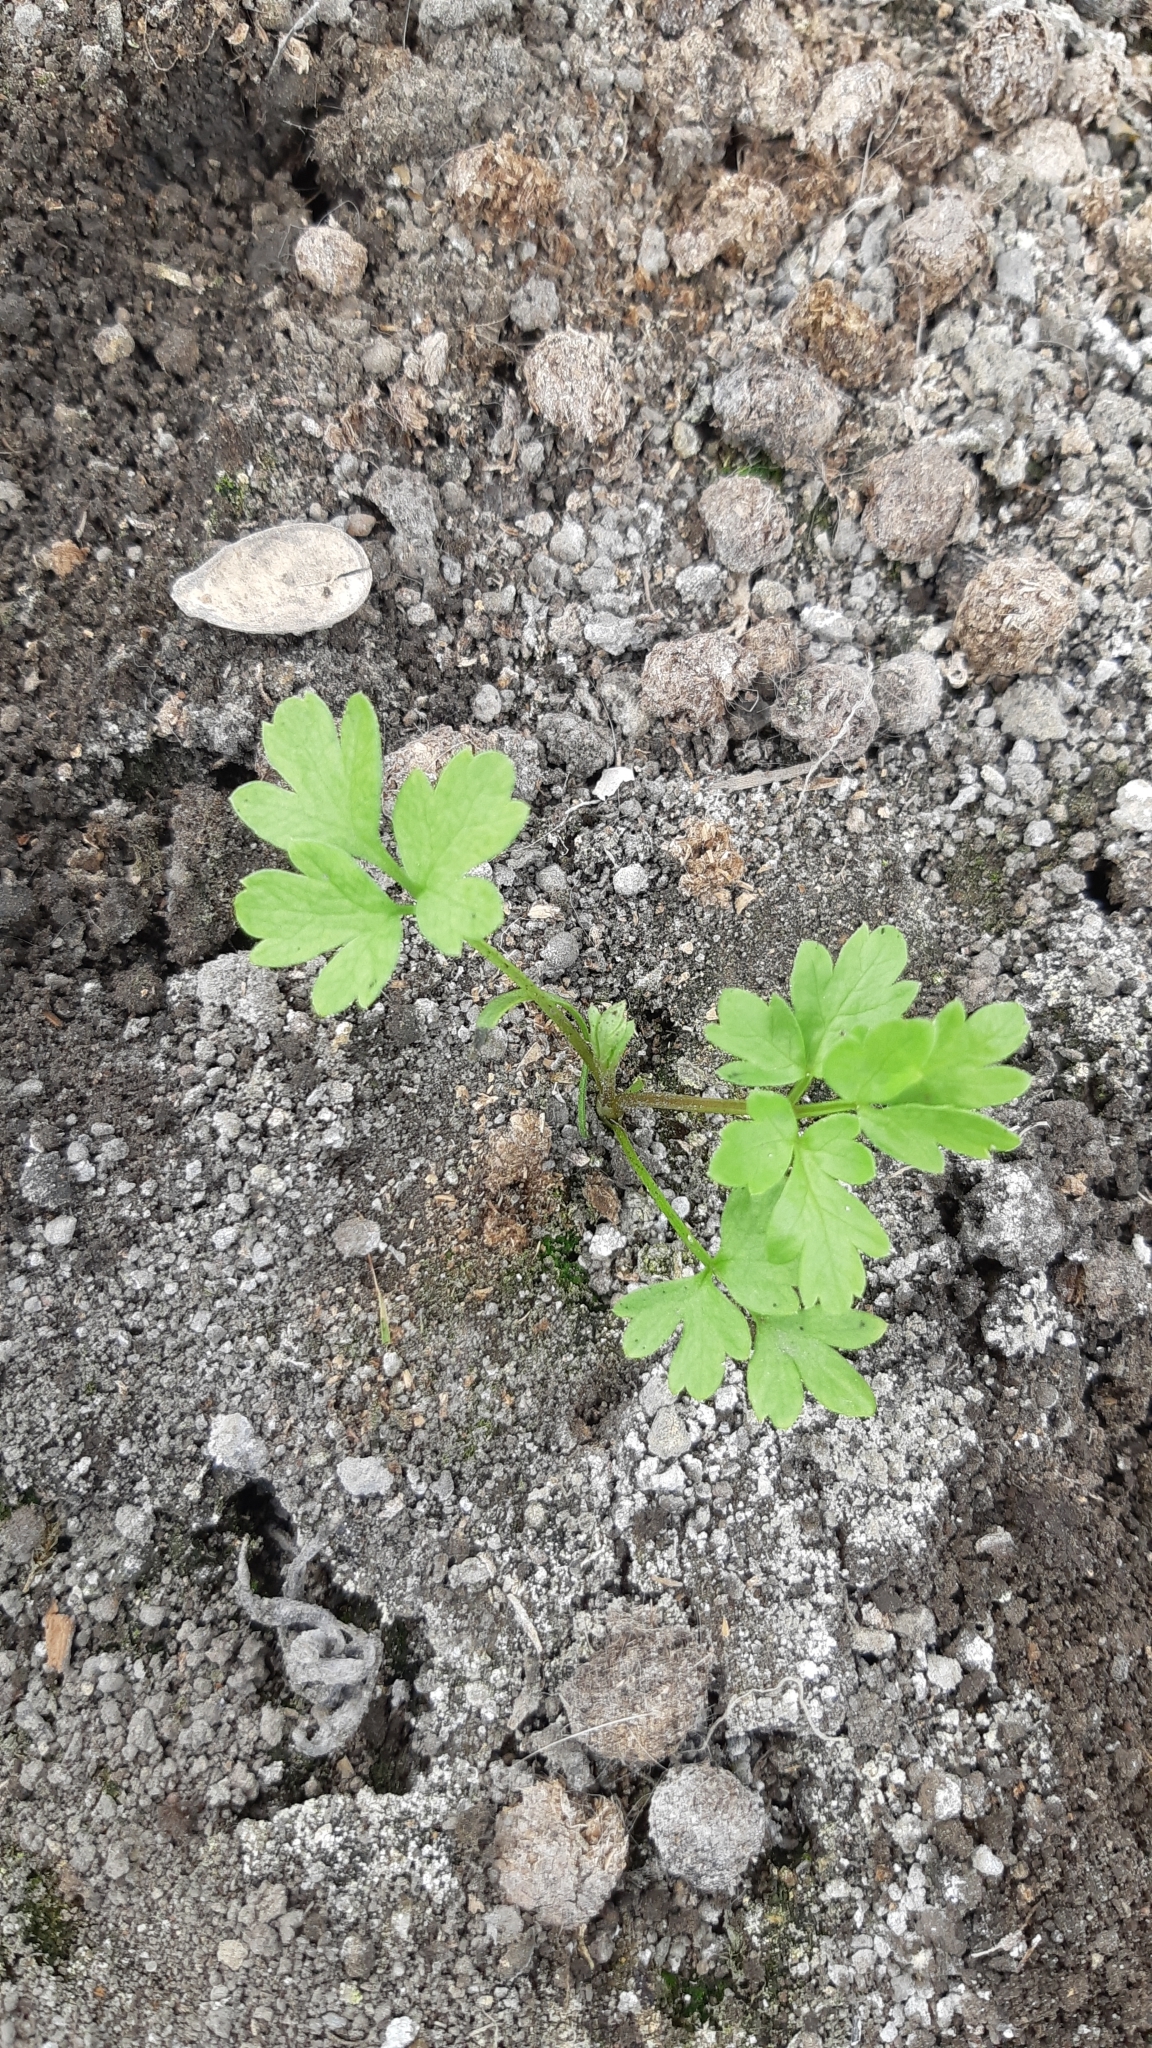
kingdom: Plantae
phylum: Tracheophyta
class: Magnoliopsida
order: Dipsacales
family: Viburnaceae
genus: Adoxa
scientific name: Adoxa moschatellina
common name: Moschatel
